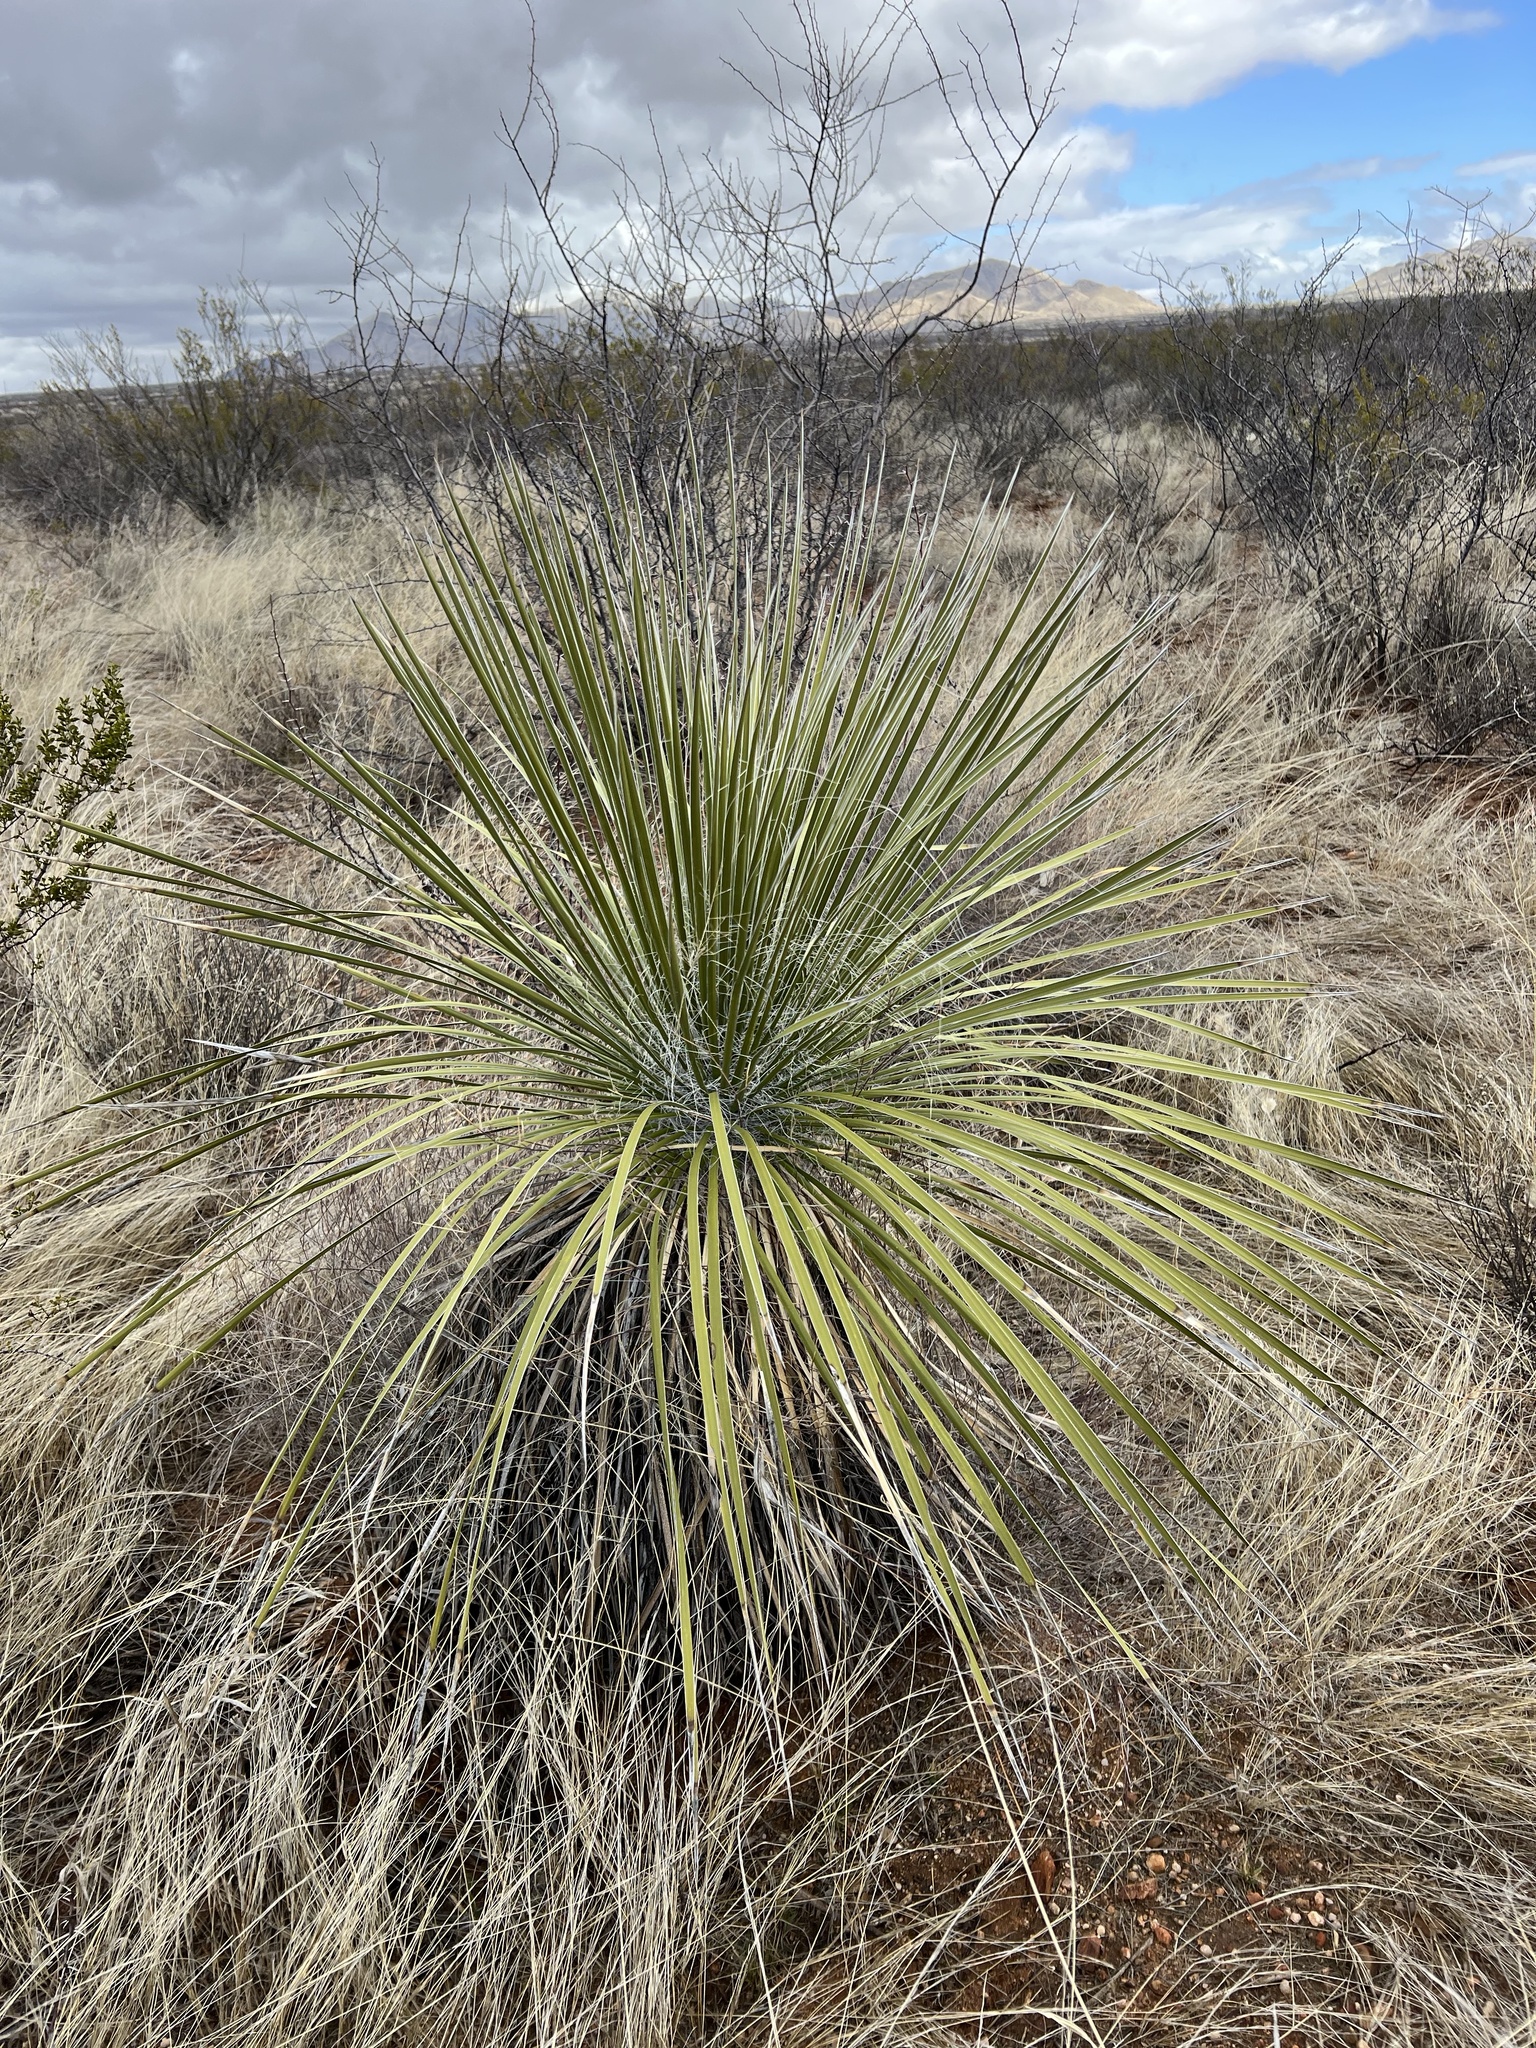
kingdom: Plantae
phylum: Tracheophyta
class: Liliopsida
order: Asparagales
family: Asparagaceae
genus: Yucca
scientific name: Yucca elata
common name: Palmella
